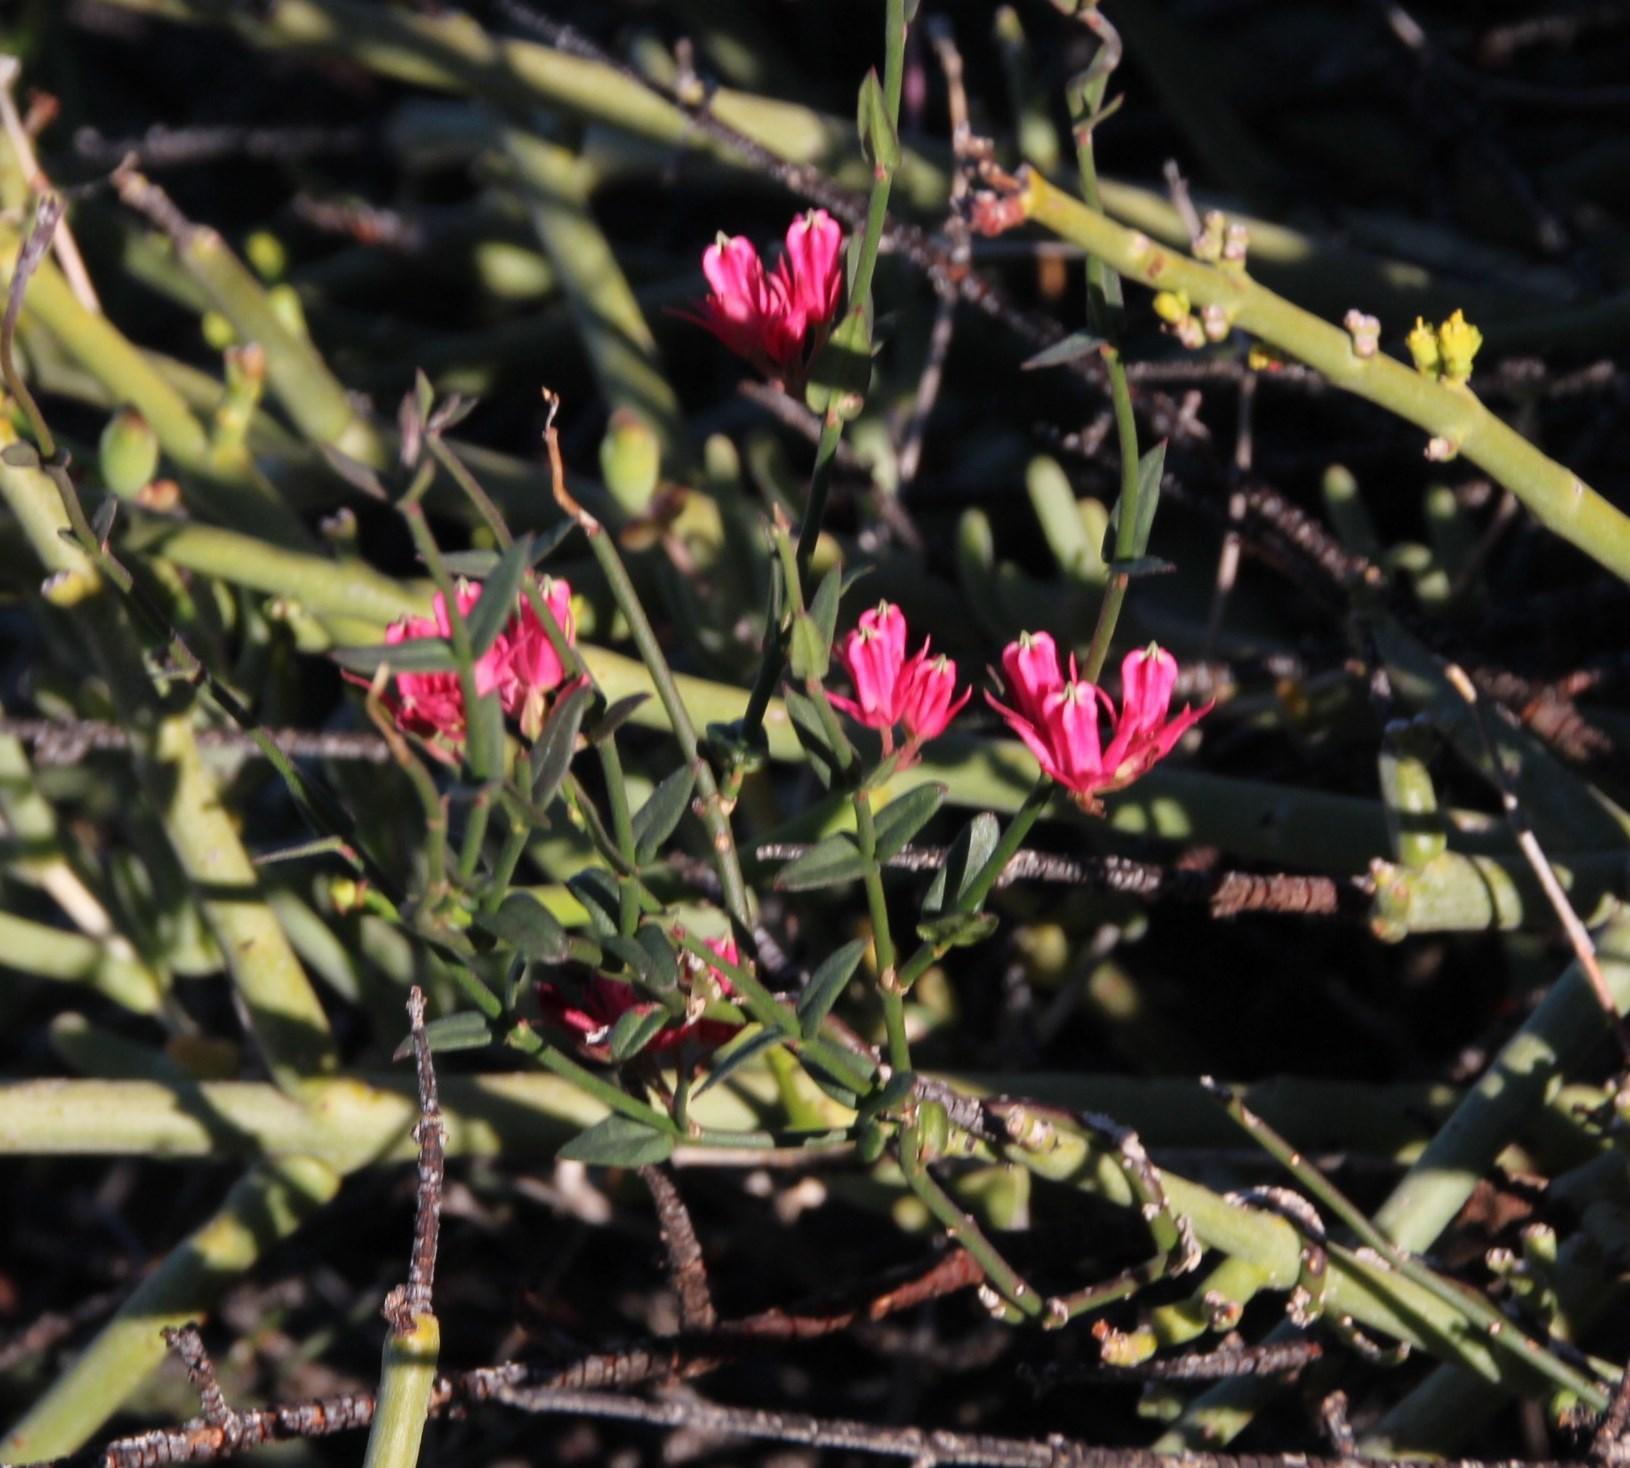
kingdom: Plantae
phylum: Tracheophyta
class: Magnoliopsida
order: Gentianales
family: Apocynaceae
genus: Microloma
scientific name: Microloma sagittatum
